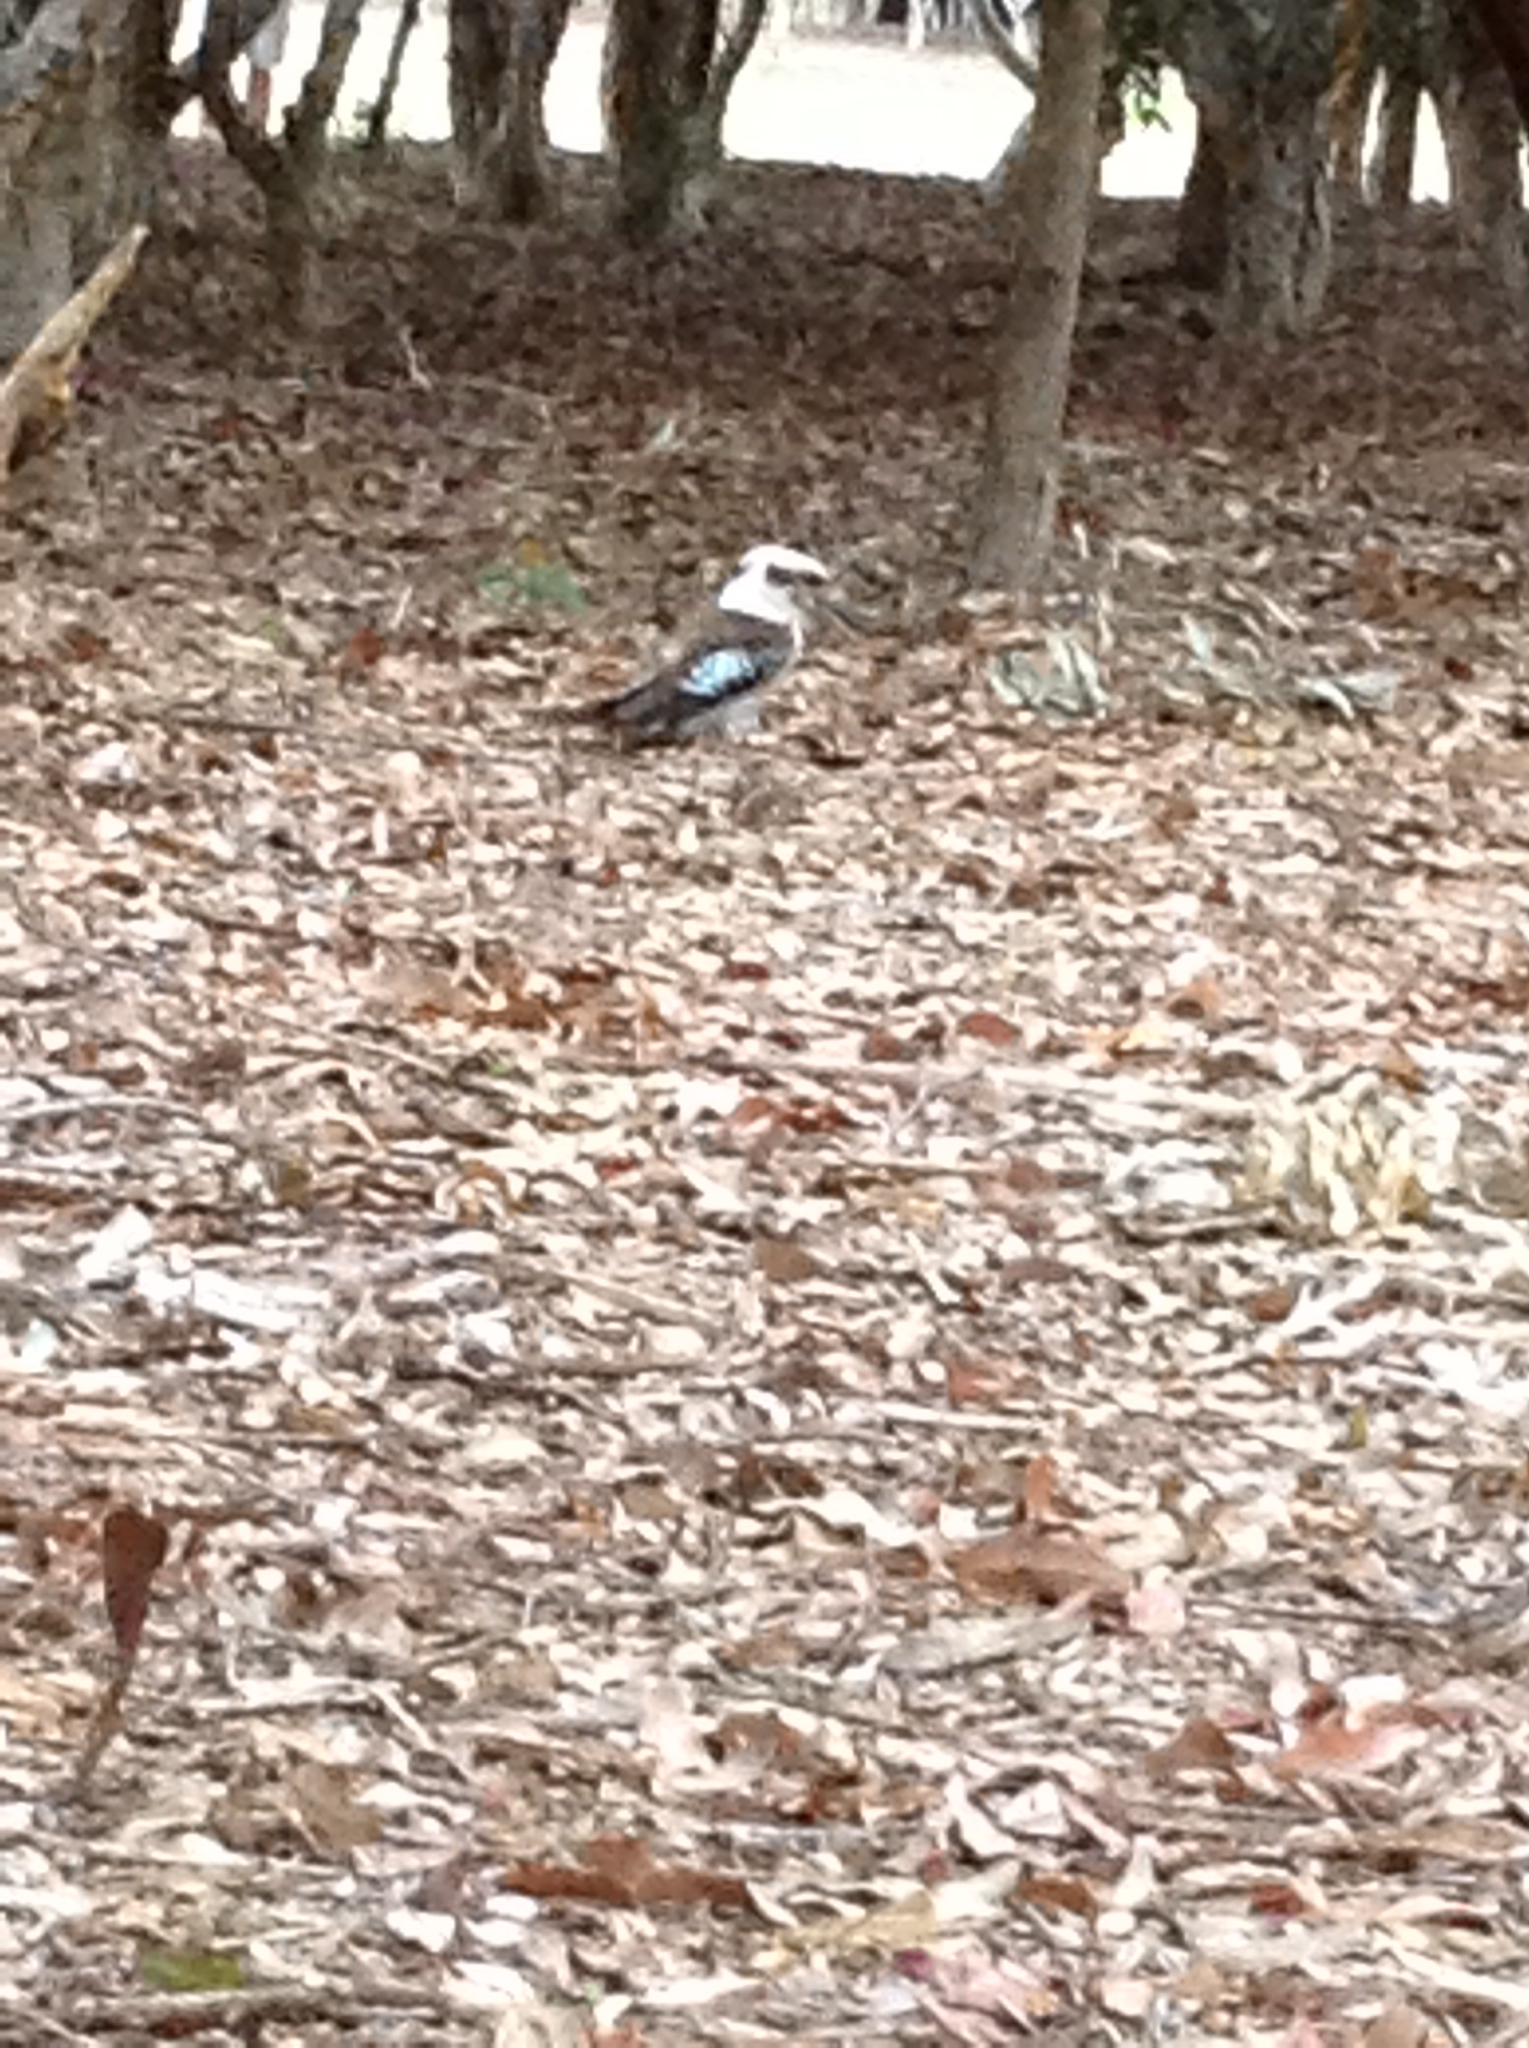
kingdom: Animalia
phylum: Chordata
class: Aves
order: Coraciiformes
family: Alcedinidae
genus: Dacelo
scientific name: Dacelo novaeguineae
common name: Laughing kookaburra
